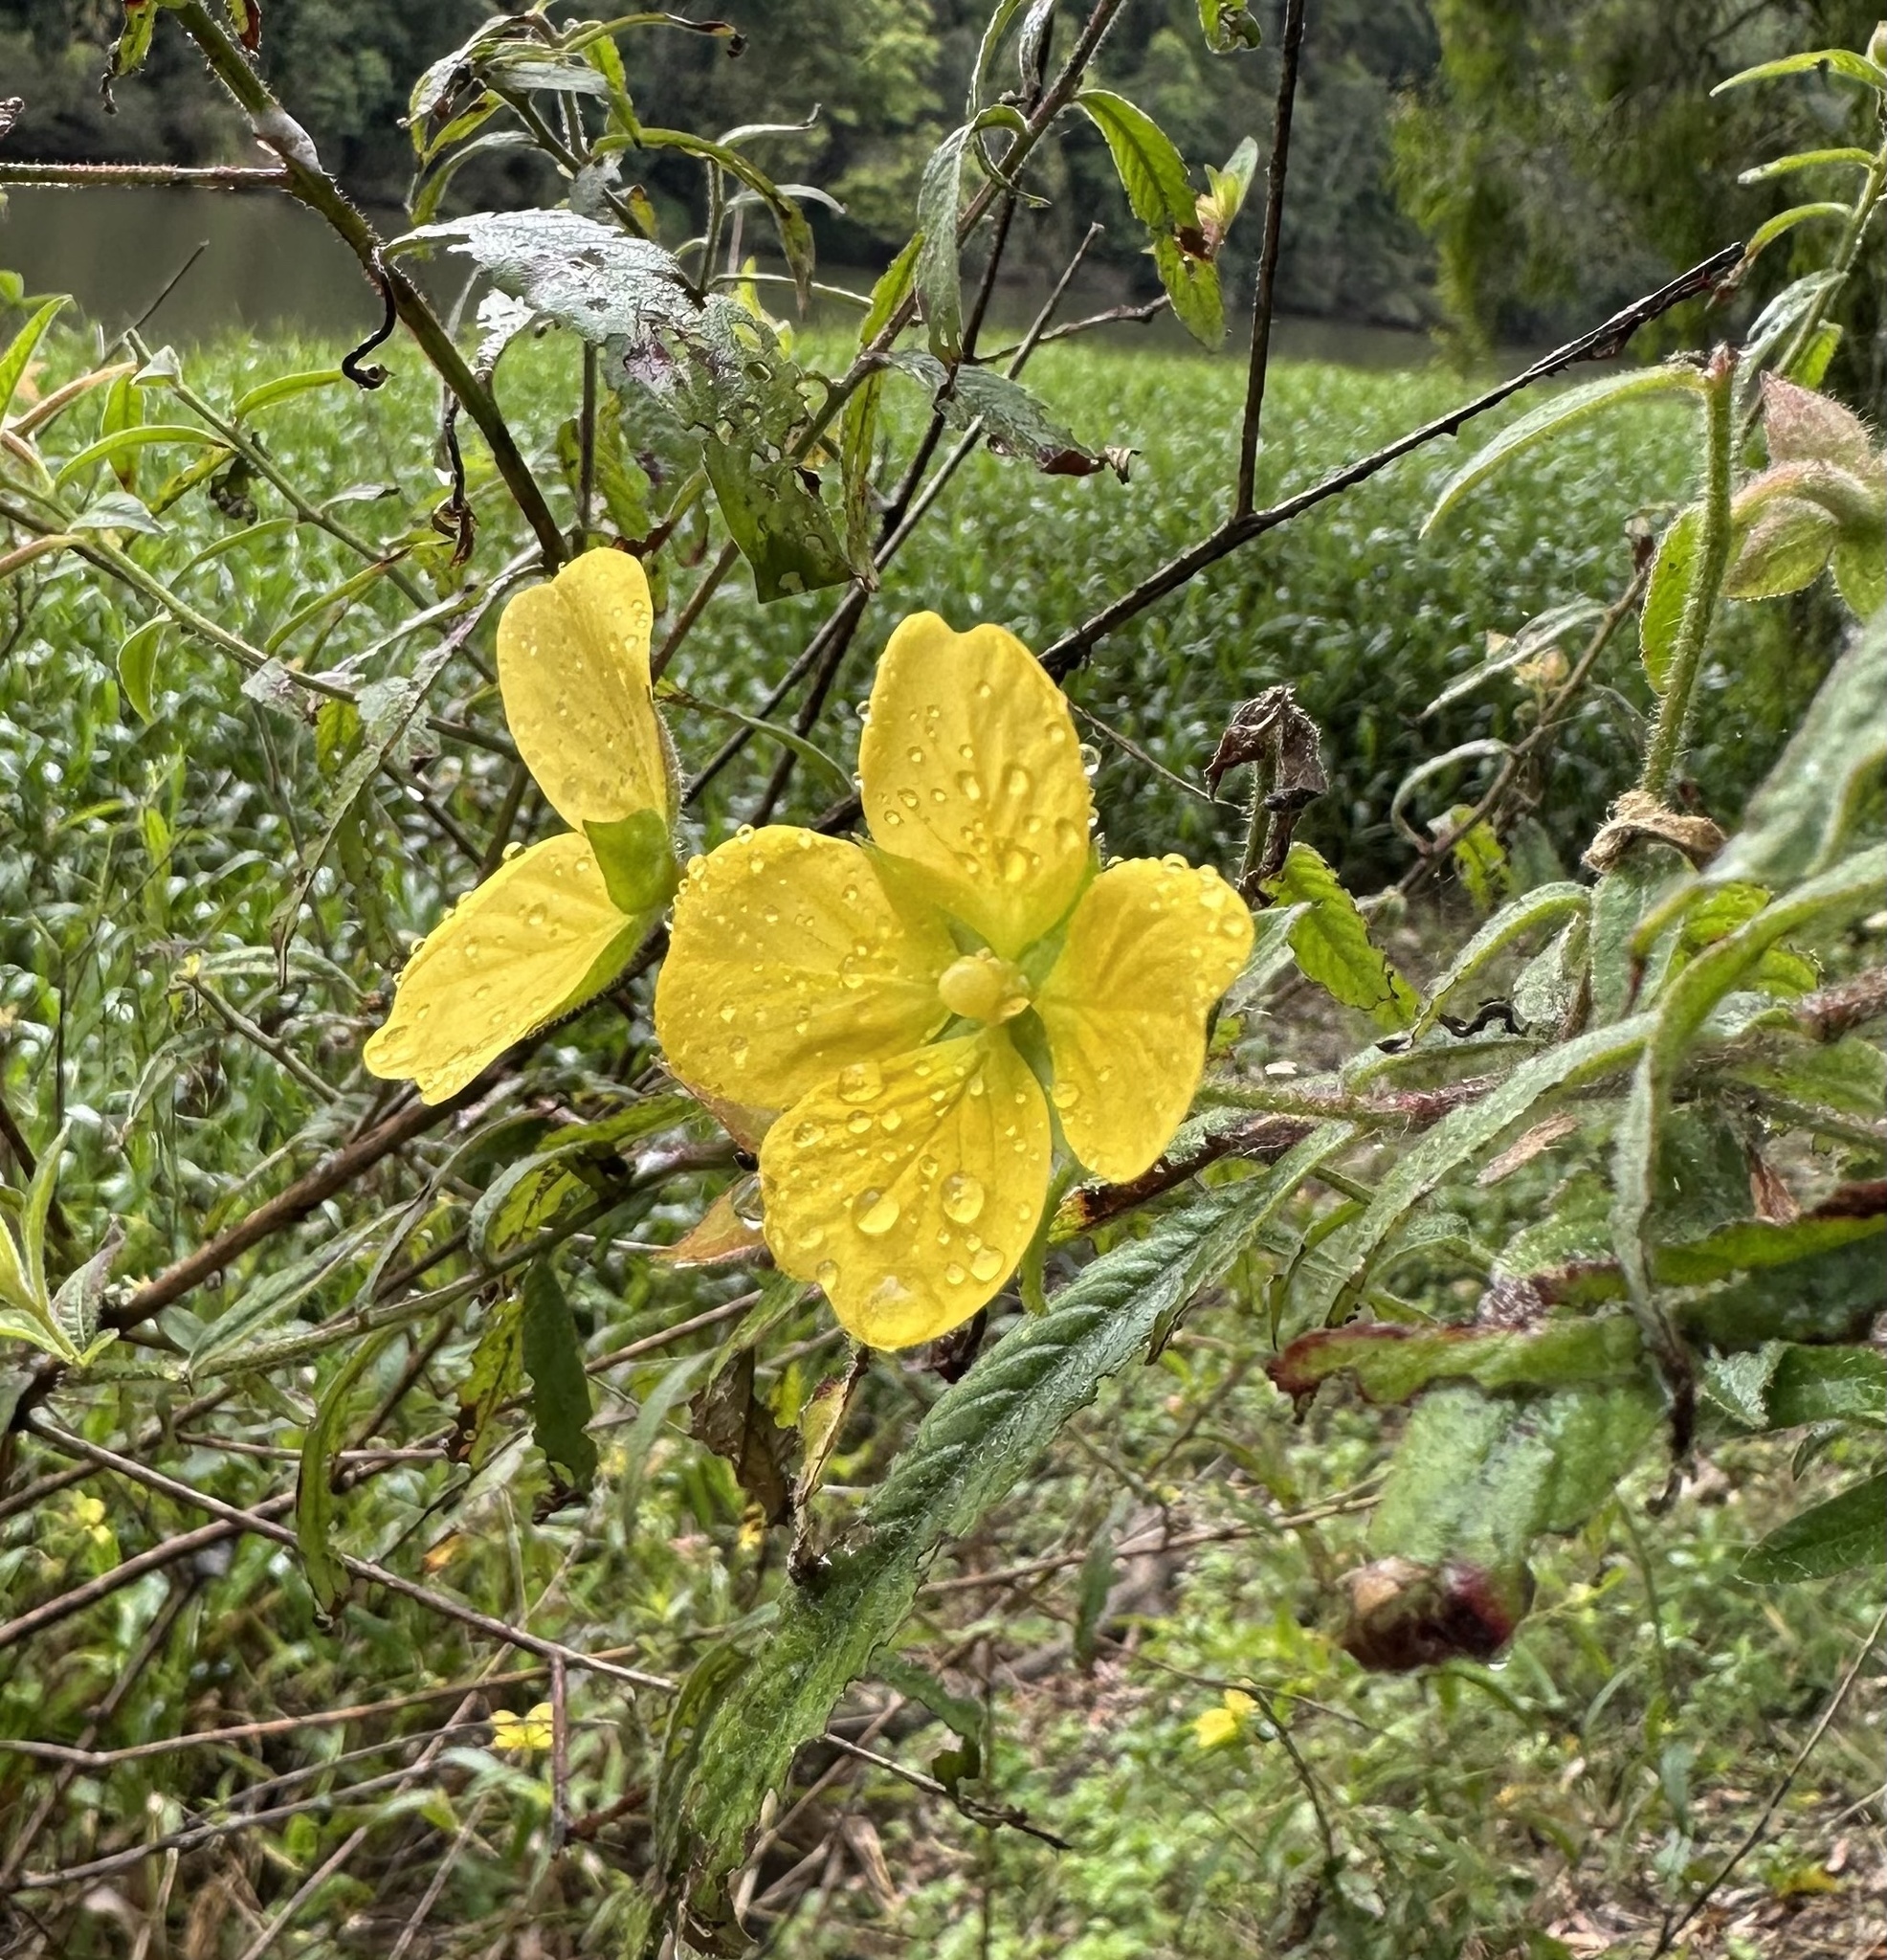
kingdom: Plantae
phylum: Tracheophyta
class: Magnoliopsida
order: Myrtales
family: Onagraceae
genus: Ludwigia
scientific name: Ludwigia octovalvis
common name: Water-primrose
